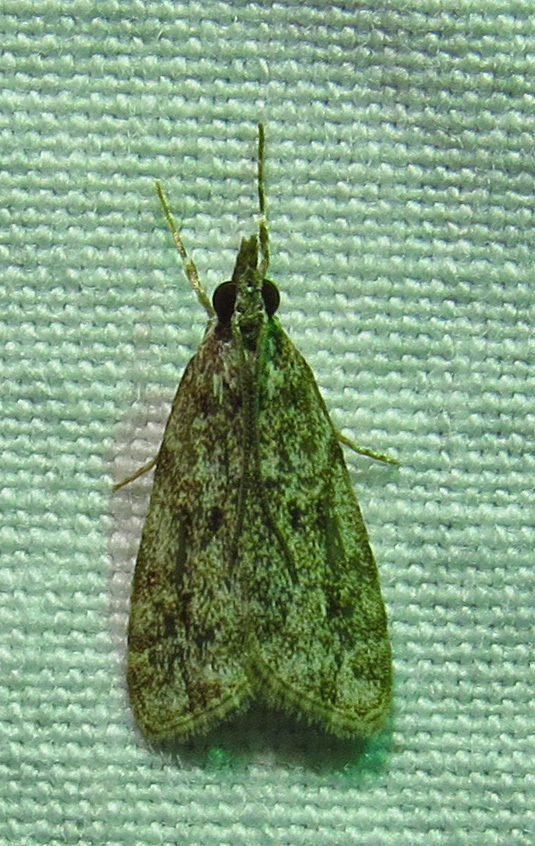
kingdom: Animalia
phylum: Arthropoda
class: Insecta
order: Lepidoptera
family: Crambidae
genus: Eudonia
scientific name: Eudonia heterosalis
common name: Mcdunnough's eudonia
